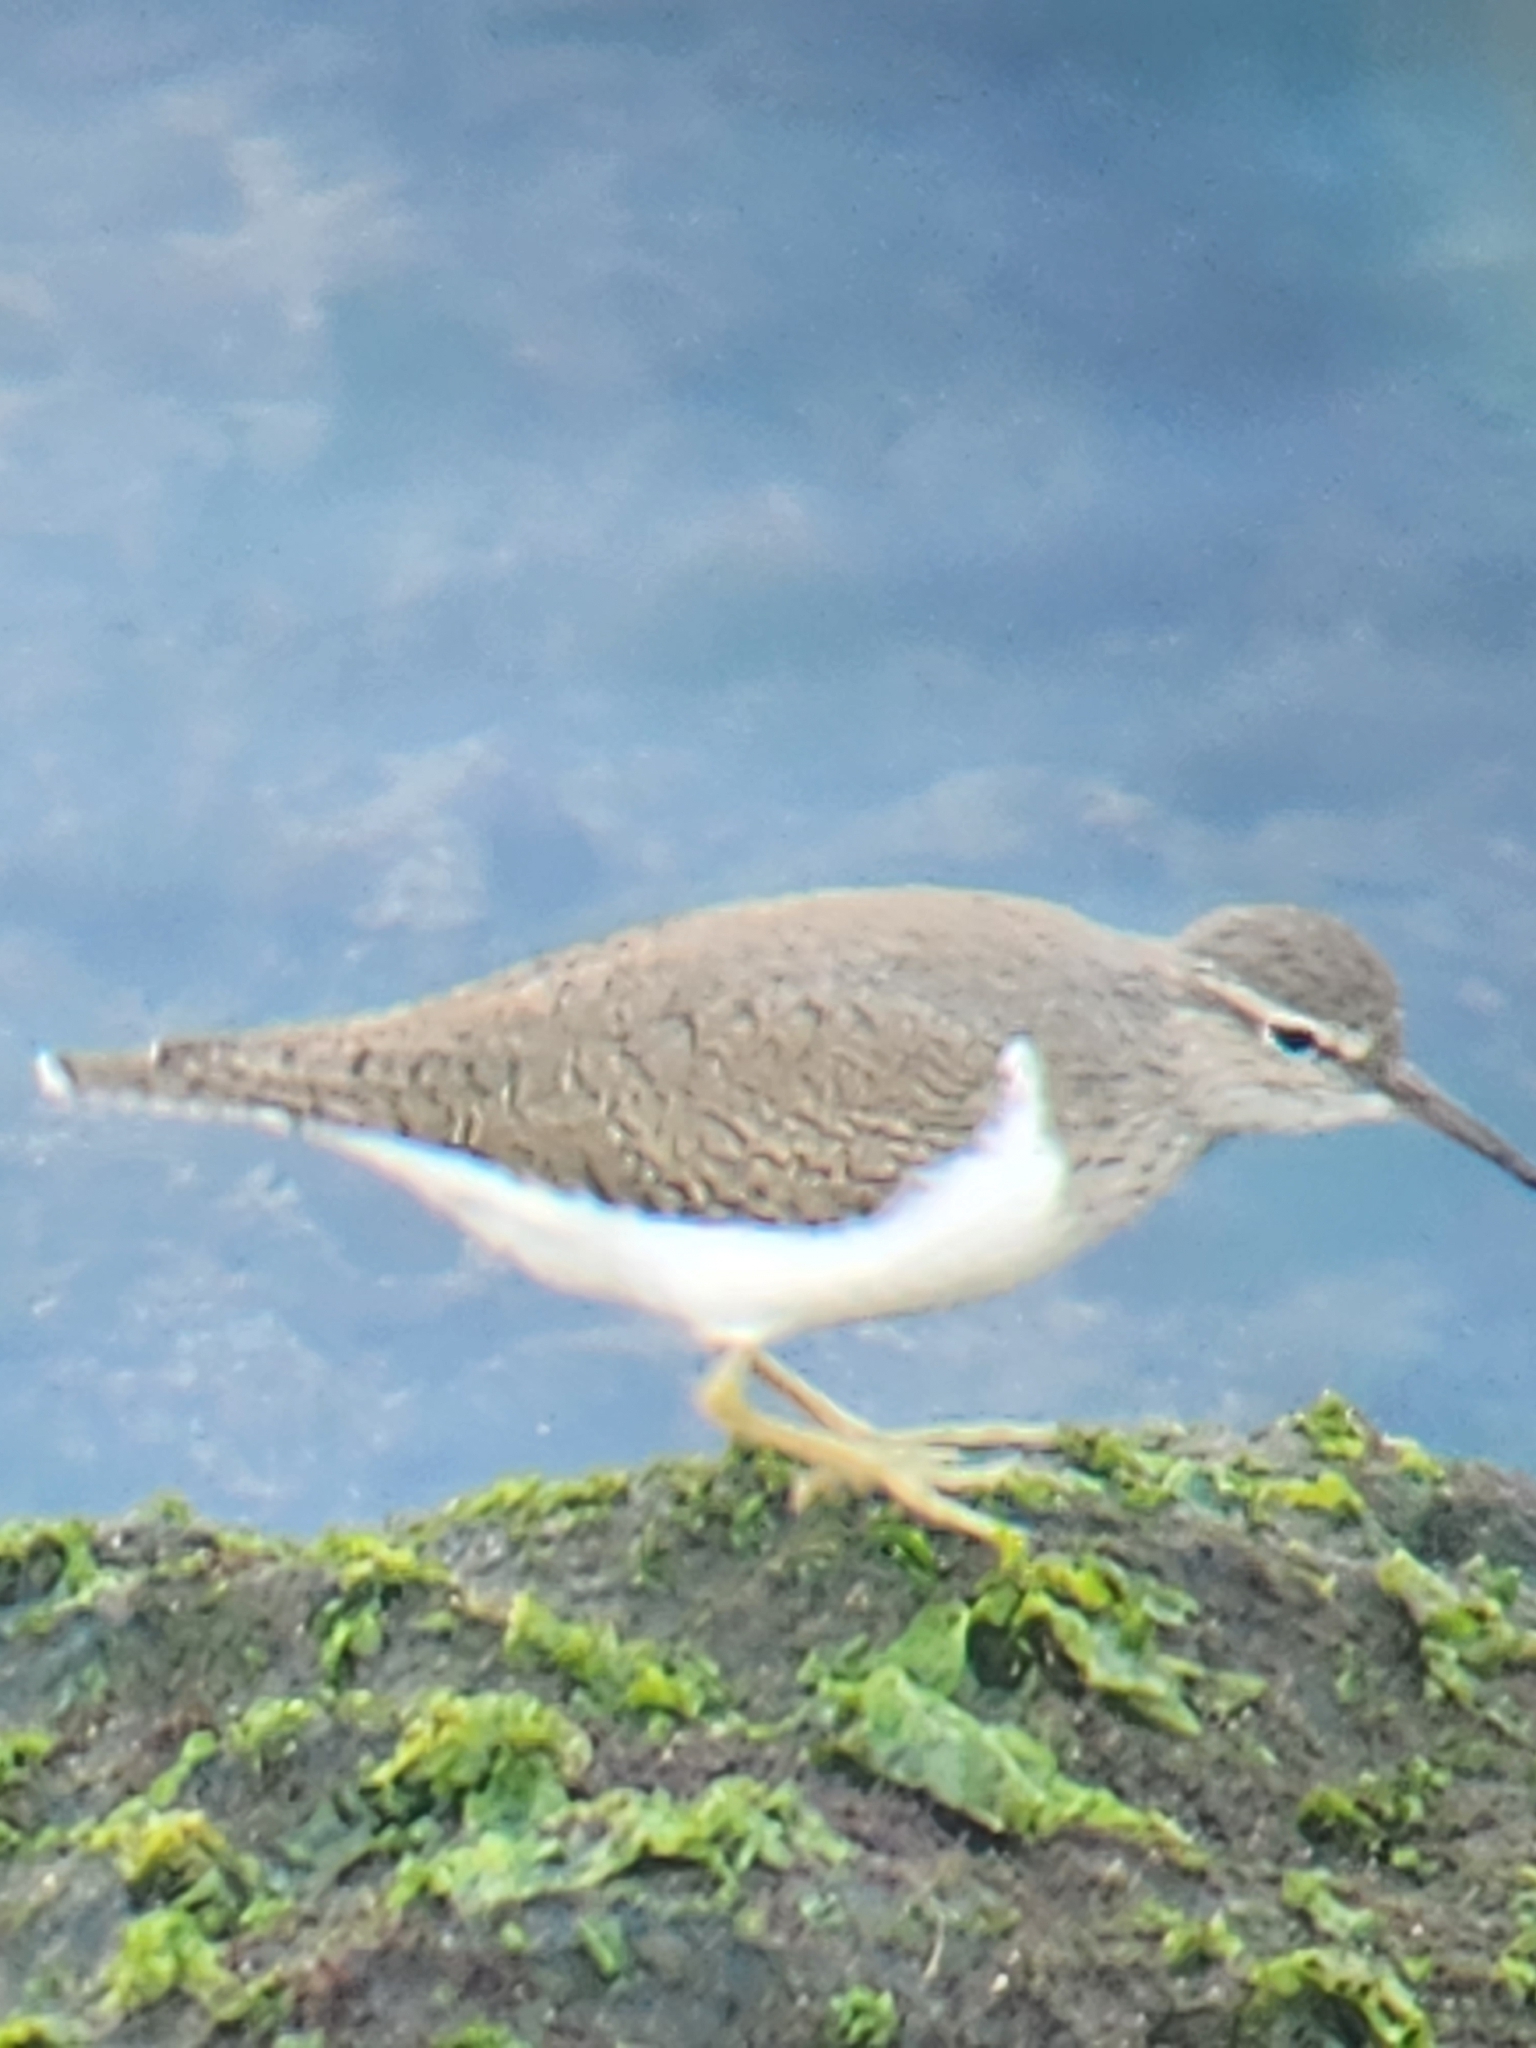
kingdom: Animalia
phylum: Chordata
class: Aves
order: Charadriiformes
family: Scolopacidae
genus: Actitis
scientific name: Actitis hypoleucos
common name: Common sandpiper
